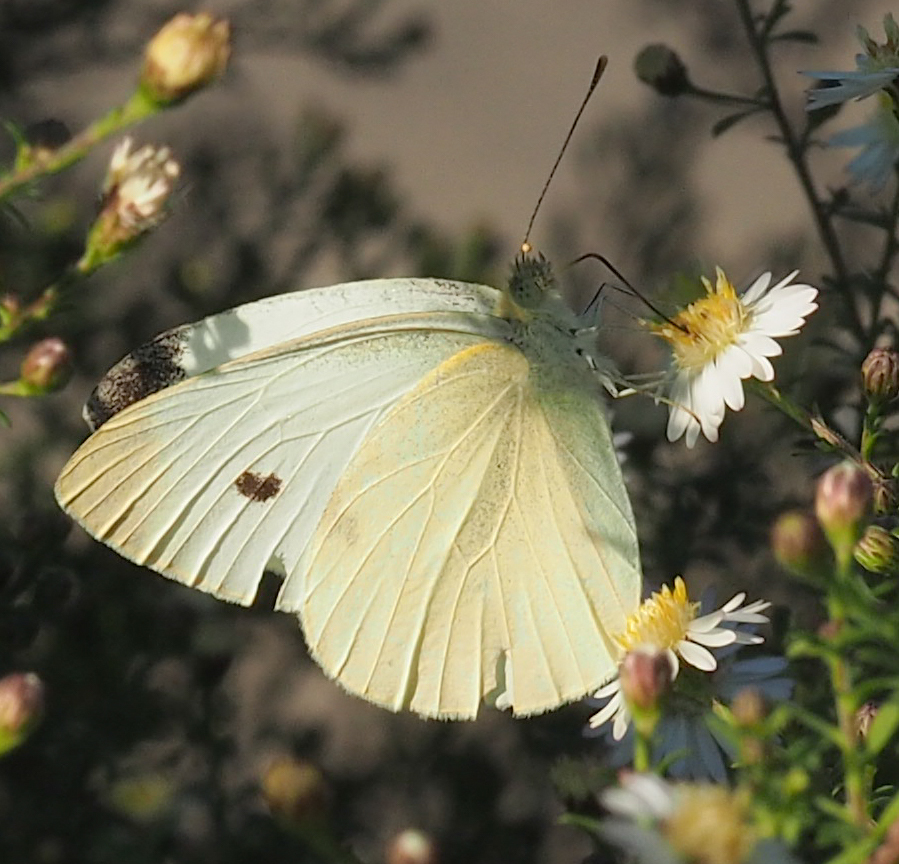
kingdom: Animalia
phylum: Arthropoda
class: Insecta
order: Lepidoptera
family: Pieridae
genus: Pieris
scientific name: Pieris rapae
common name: Small white
